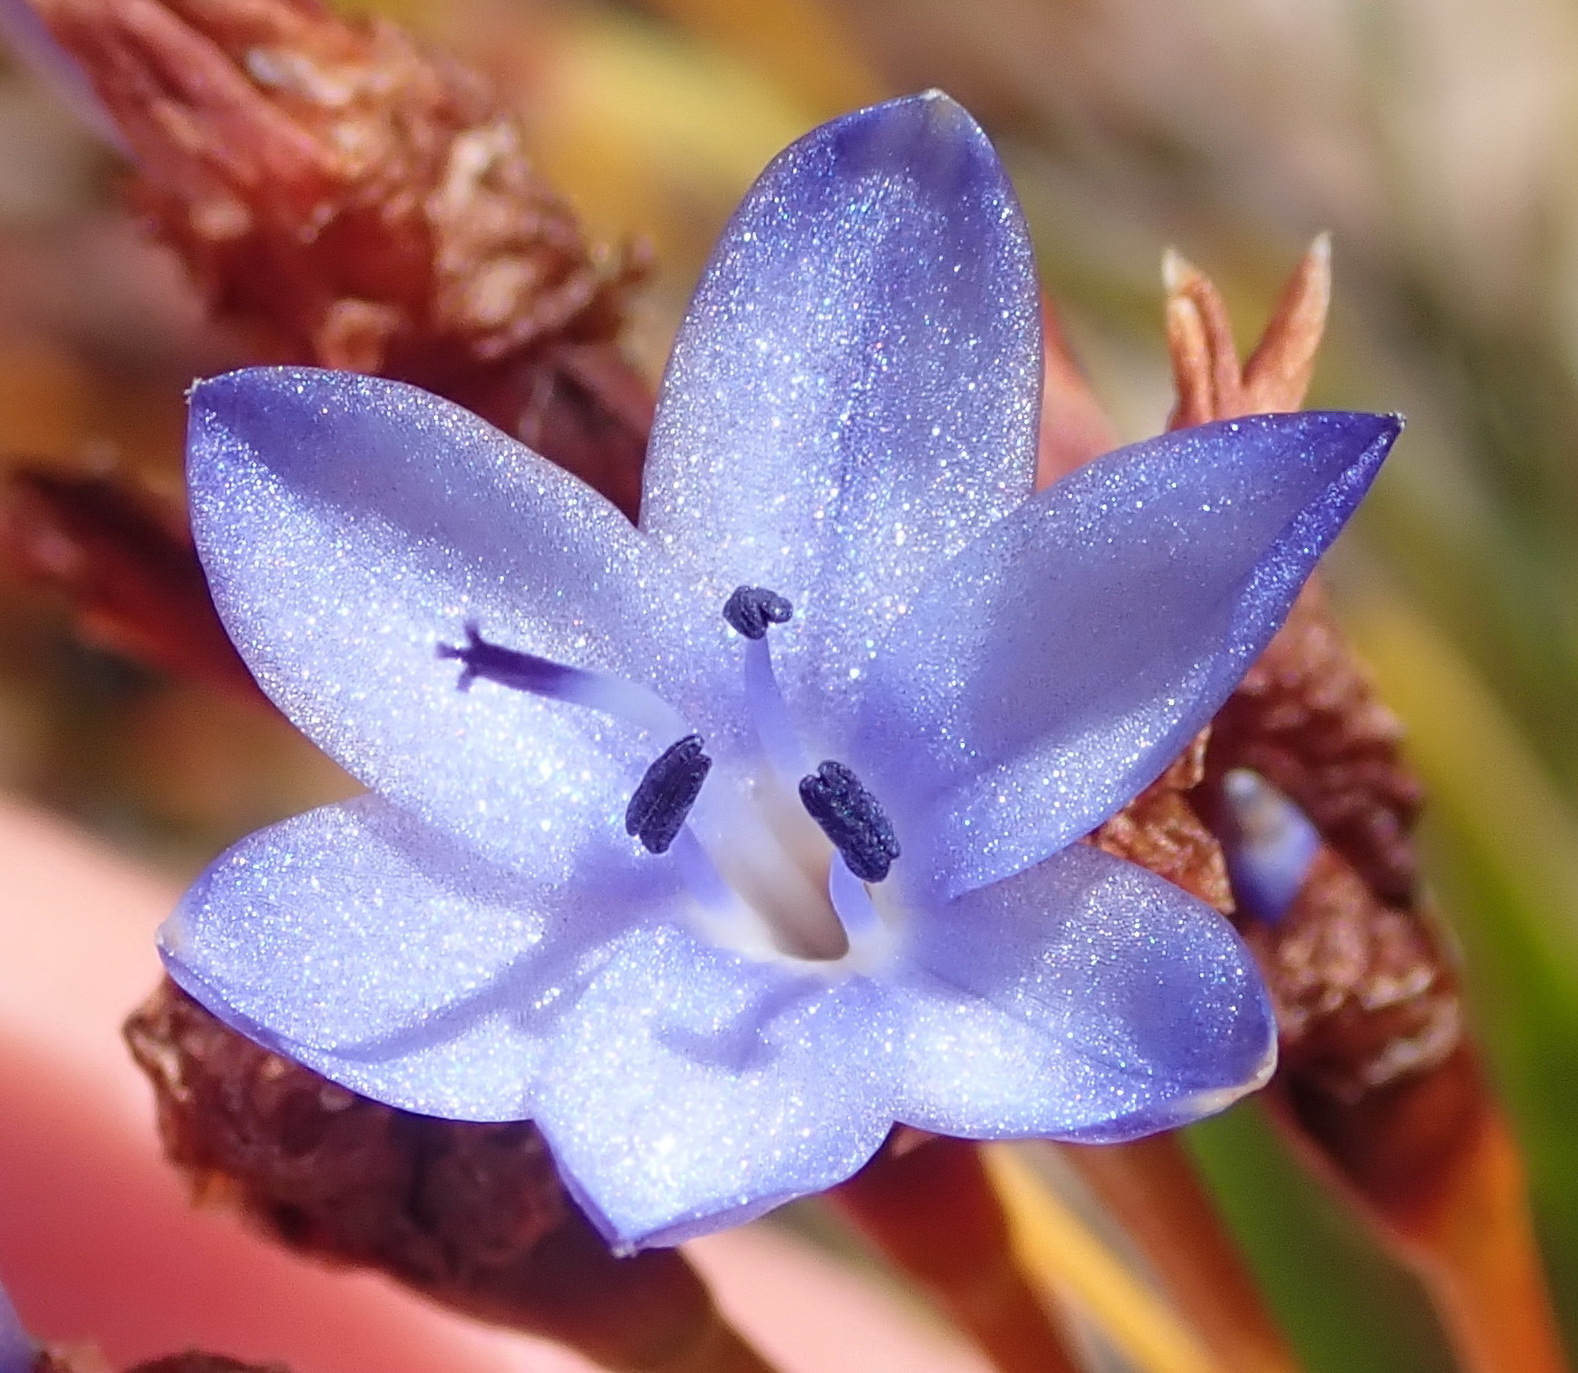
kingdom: Plantae
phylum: Tracheophyta
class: Liliopsida
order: Asparagales
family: Iridaceae
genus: Nivenia
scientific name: Nivenia binata
